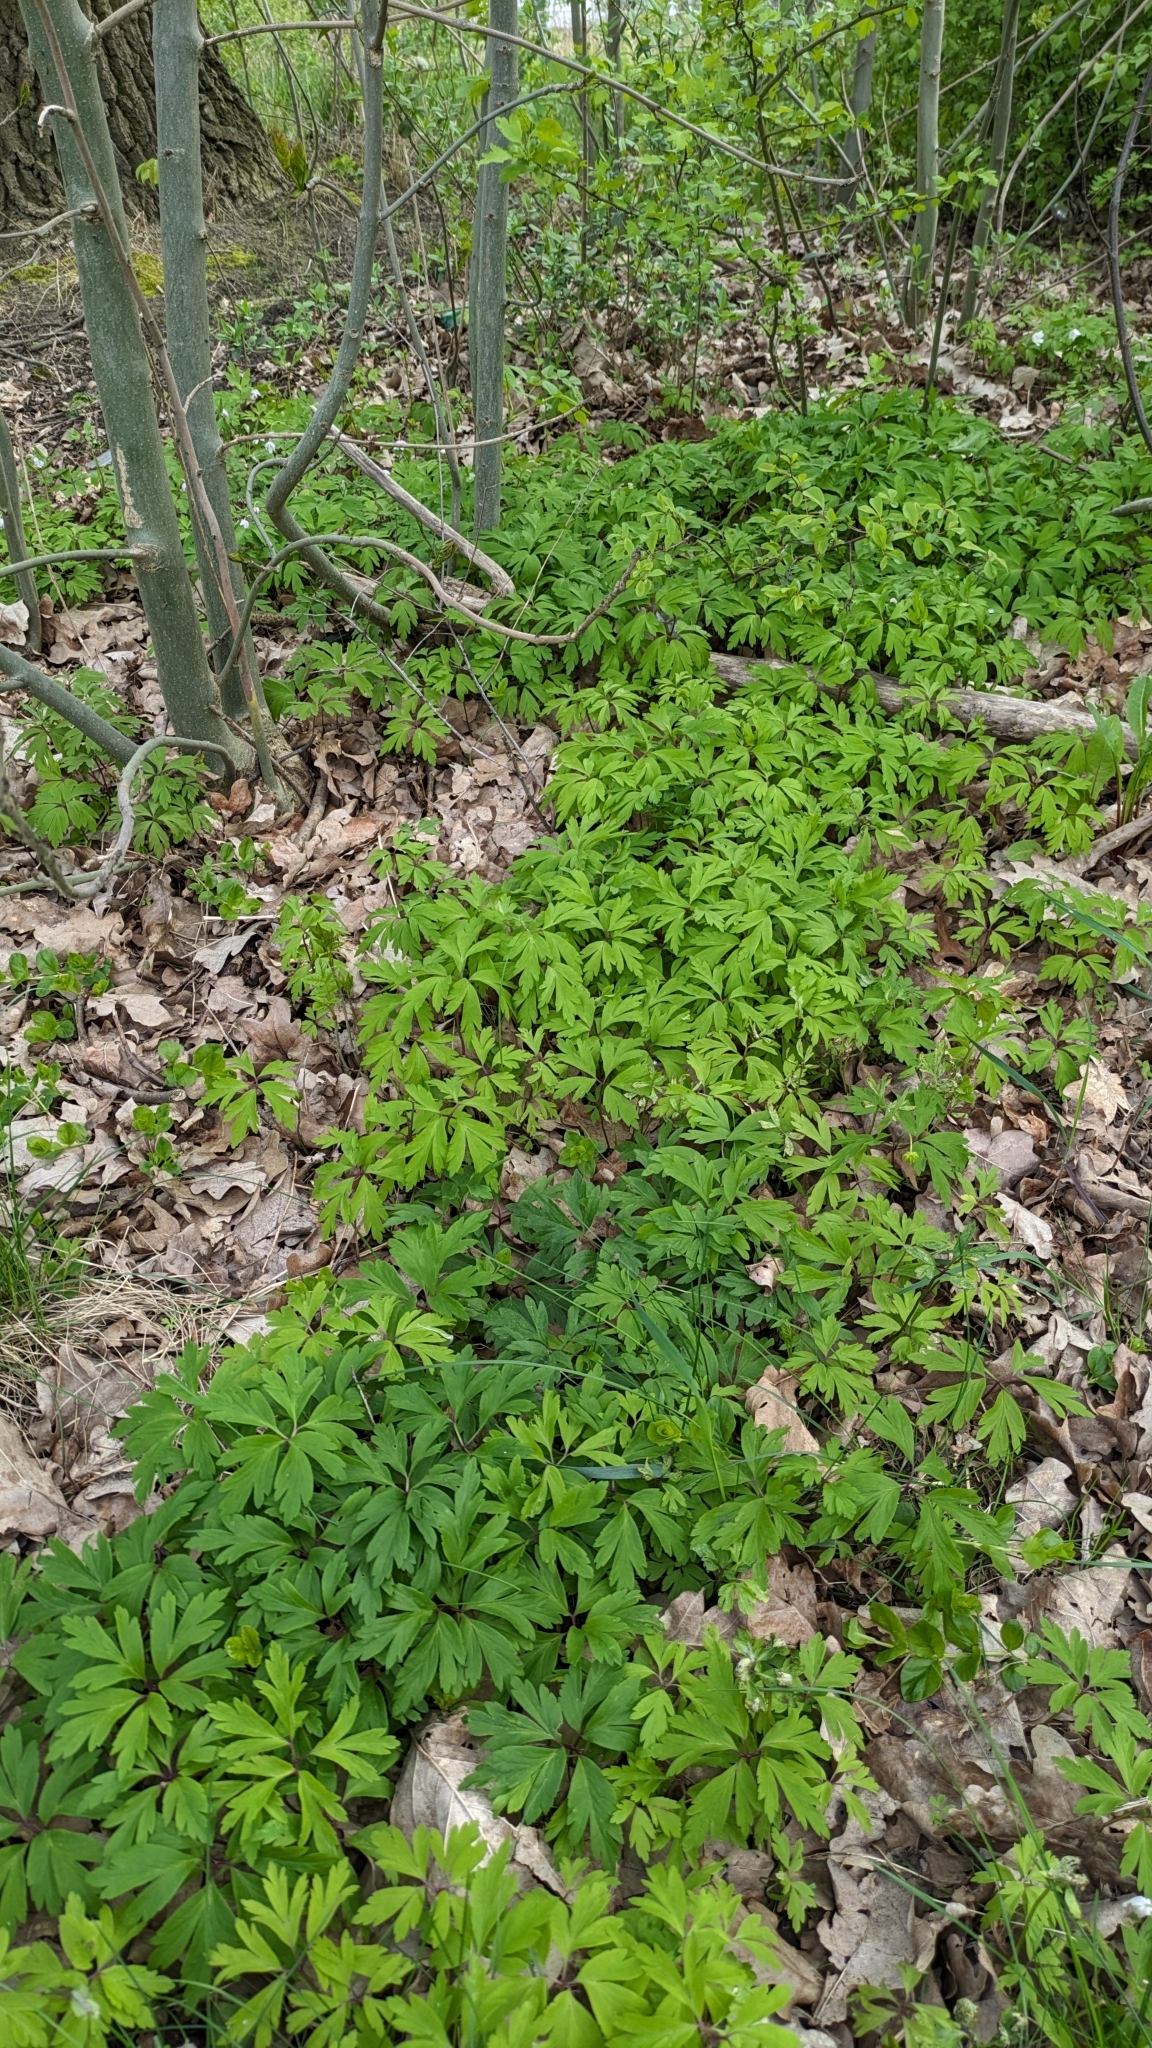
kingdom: Plantae
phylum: Tracheophyta
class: Magnoliopsida
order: Ranunculales
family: Ranunculaceae
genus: Anemone
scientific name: Anemone nemorosa
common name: Wood anemone
